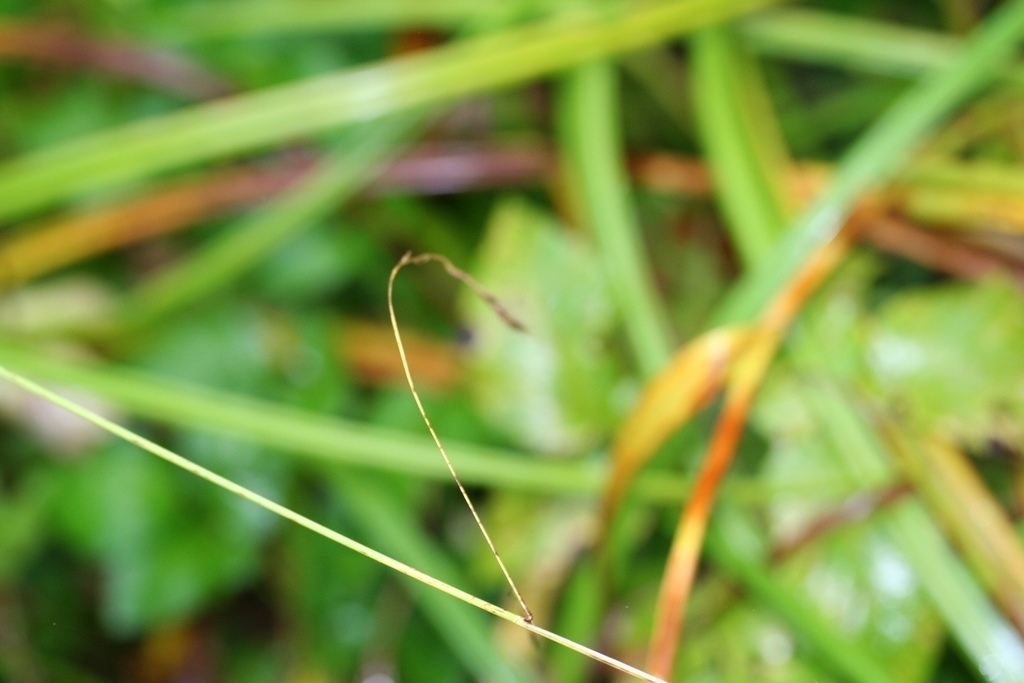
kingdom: Plantae
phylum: Tracheophyta
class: Liliopsida
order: Poales
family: Cyperaceae
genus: Scirpus
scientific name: Scirpus sylvaticus
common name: Wood club-rush
